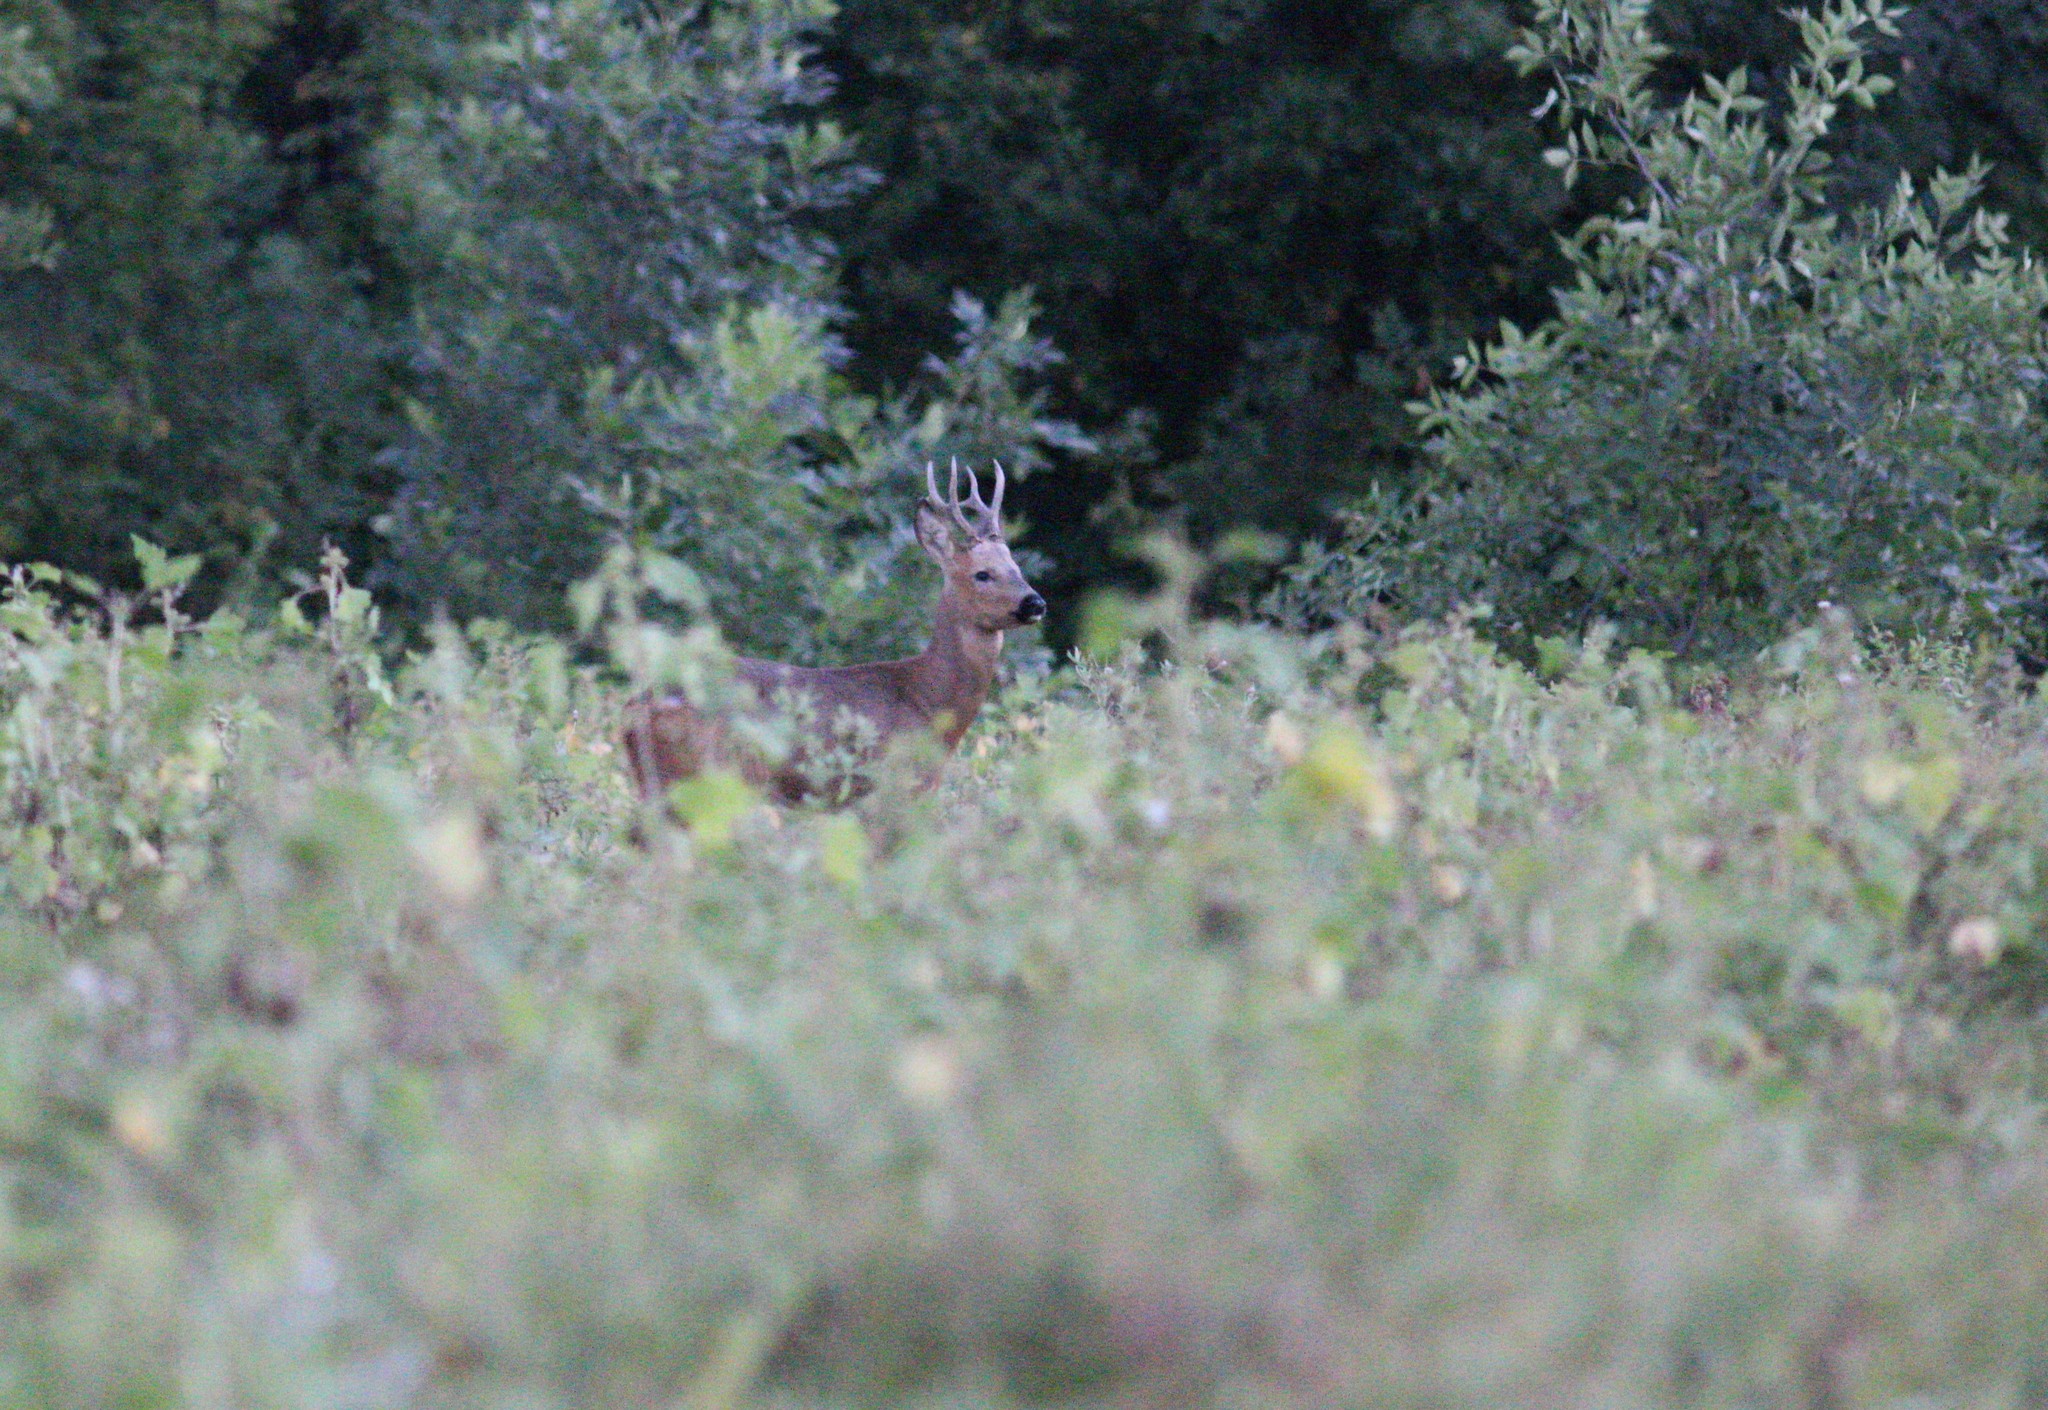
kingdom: Animalia
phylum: Chordata
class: Mammalia
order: Artiodactyla
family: Cervidae
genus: Capreolus
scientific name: Capreolus pygargus
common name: Siberian roe
